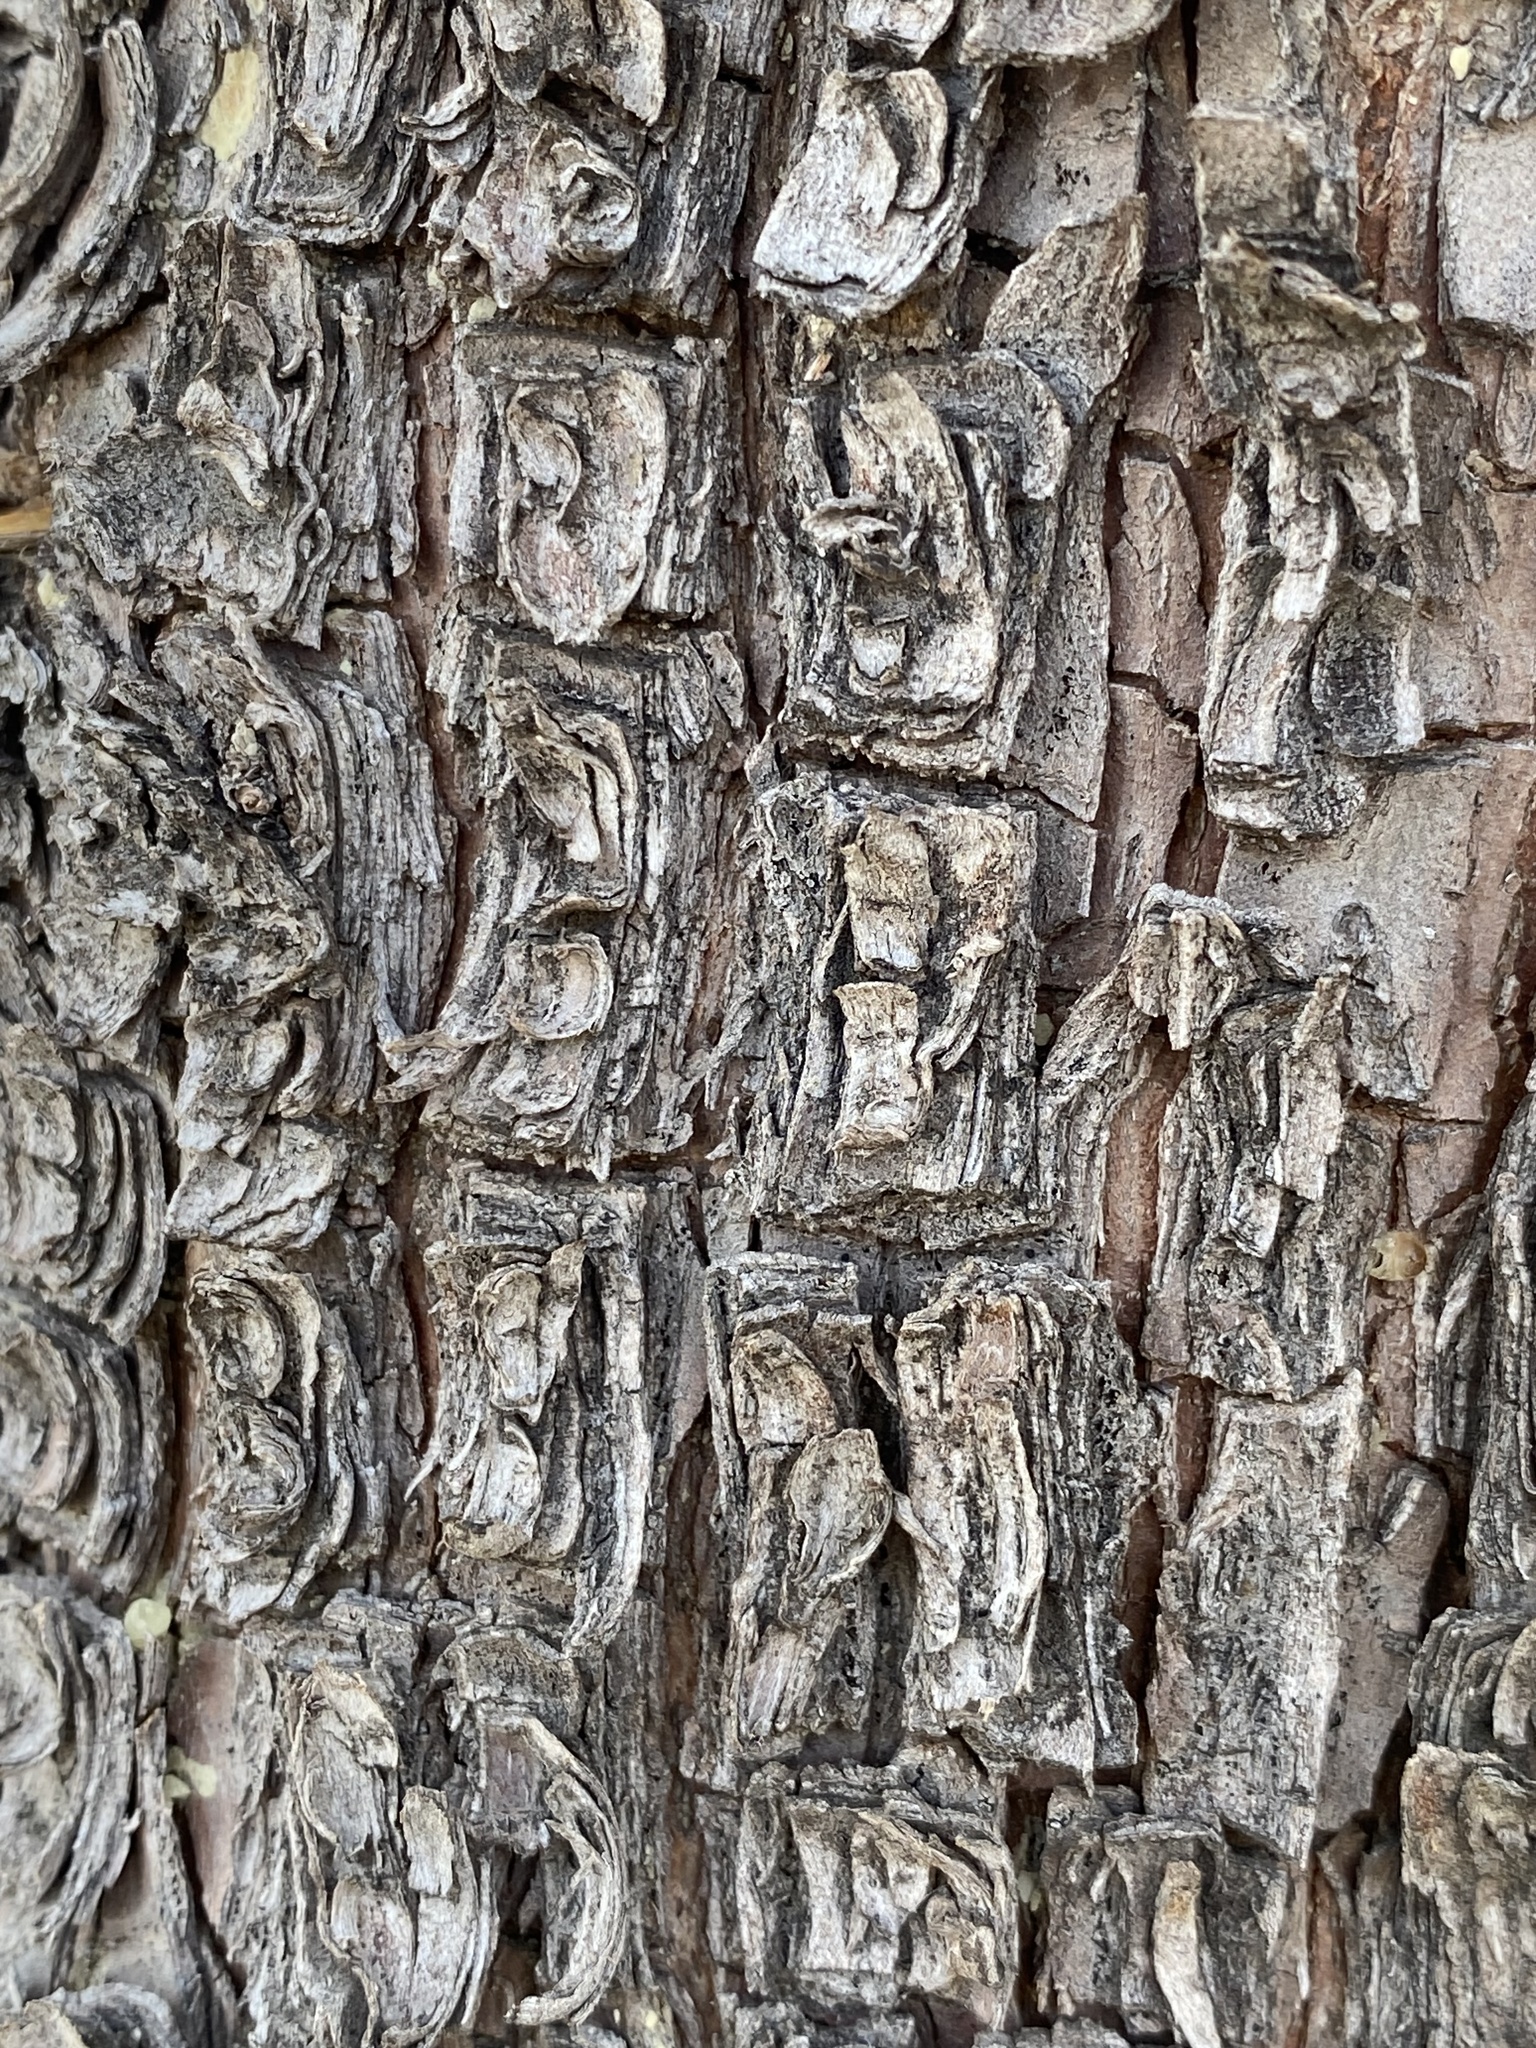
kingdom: Plantae
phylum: Tracheophyta
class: Pinopsida
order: Pinales
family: Cupressaceae
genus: Juniperus
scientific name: Juniperus deppeana
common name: Alligator juniper
